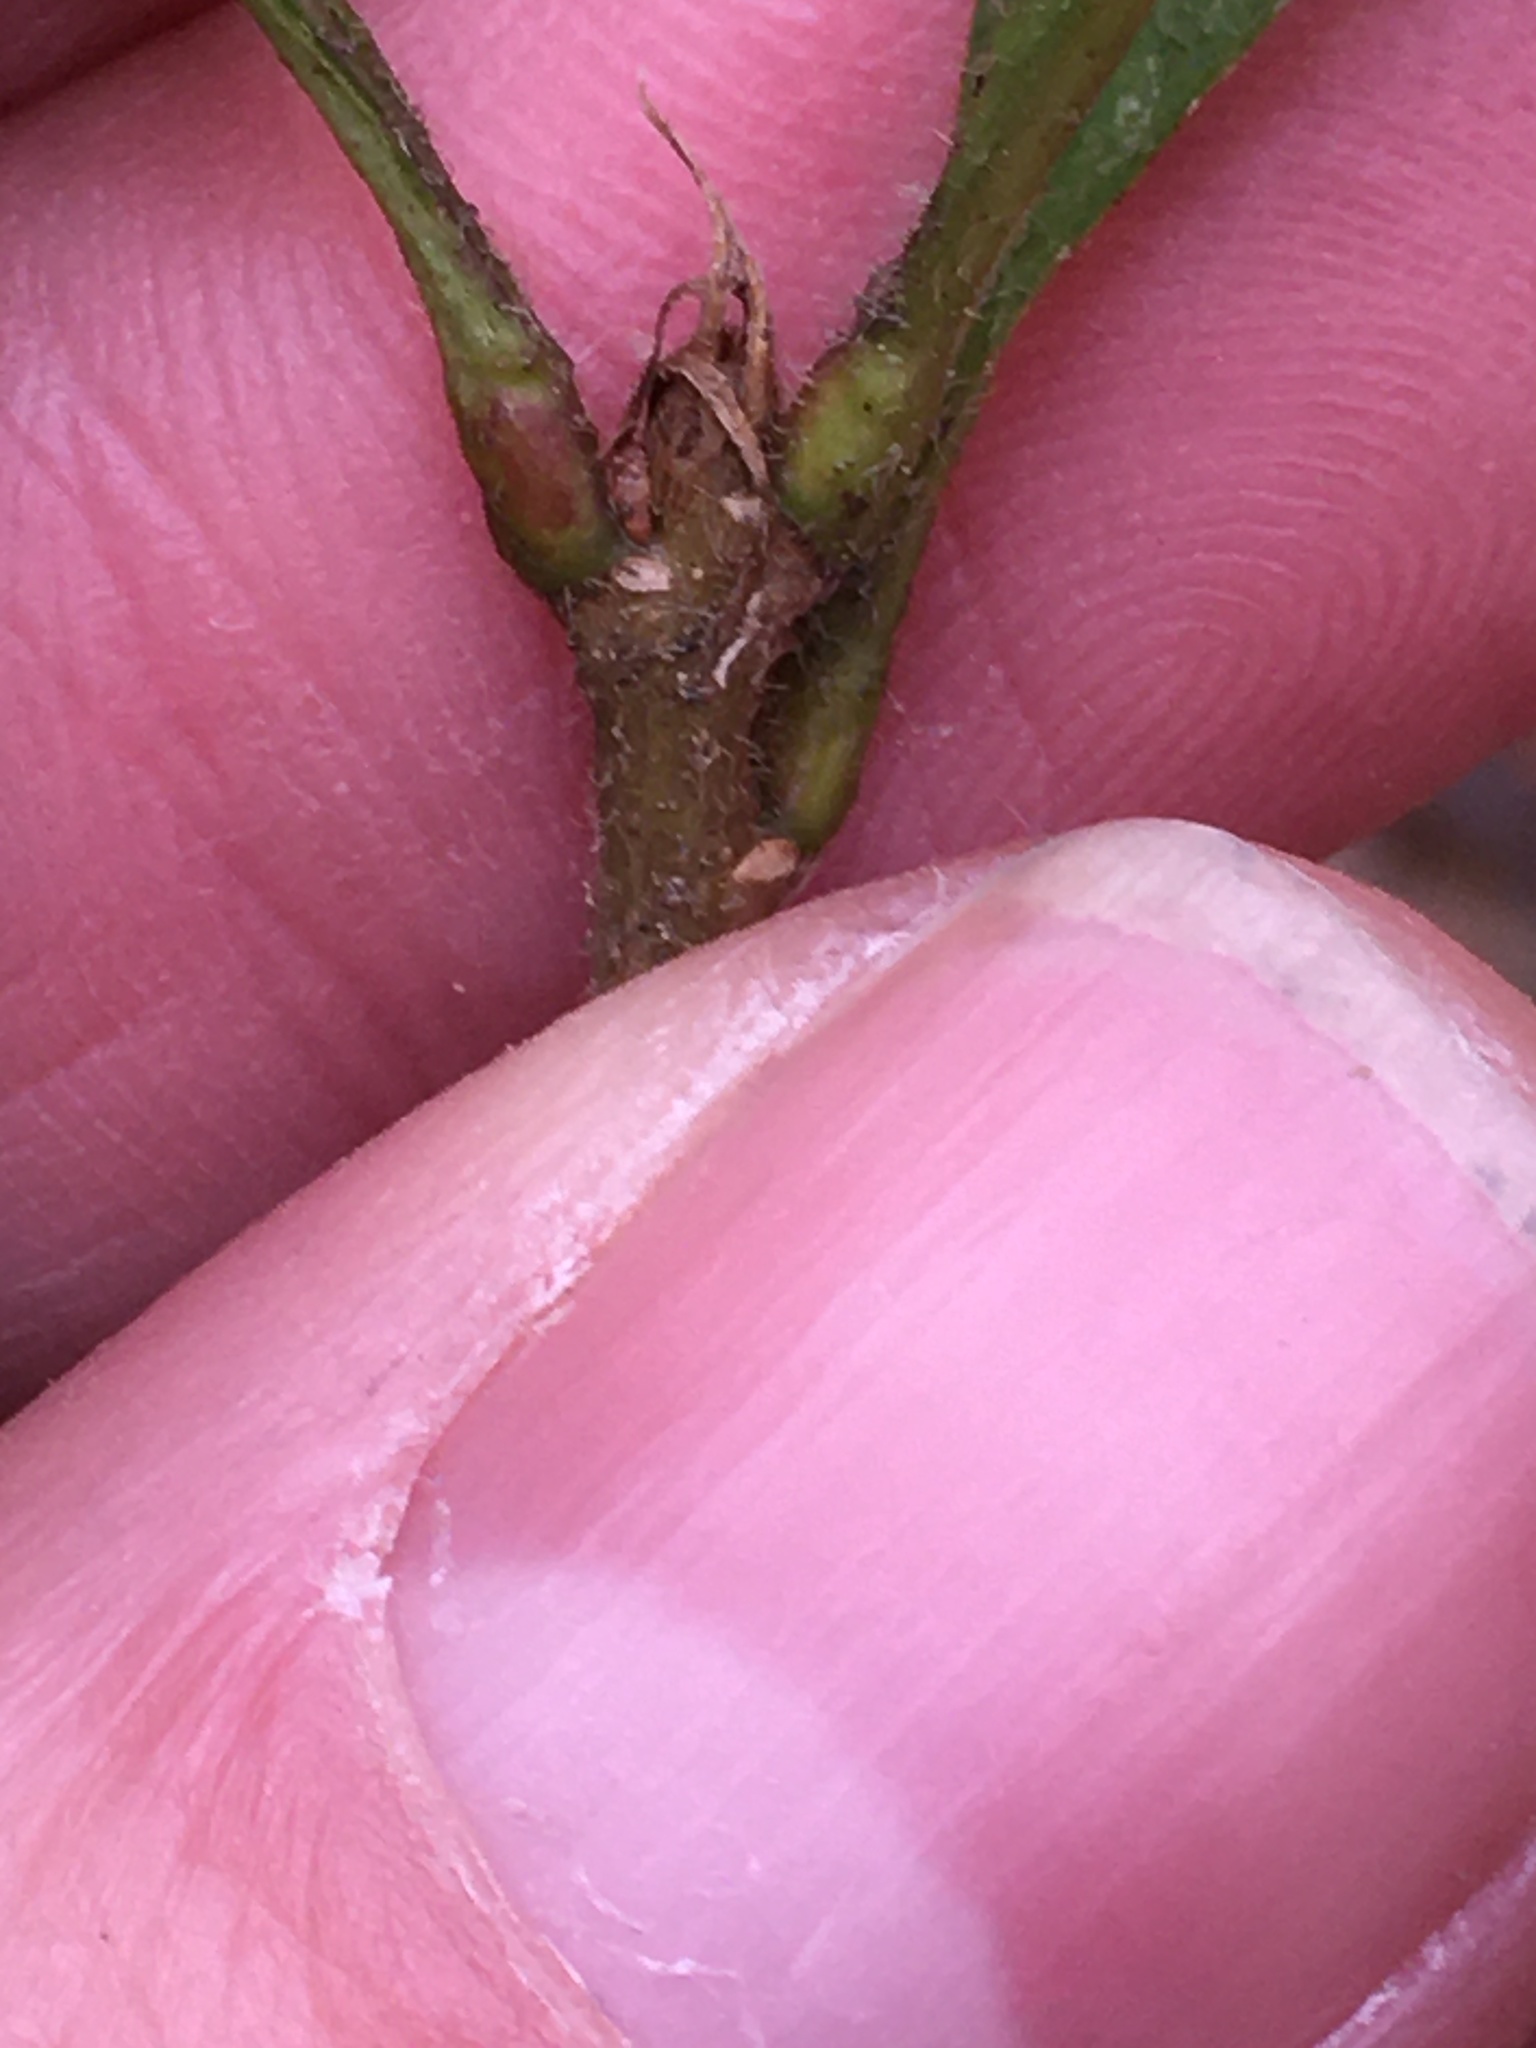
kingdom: Plantae
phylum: Tracheophyta
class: Magnoliopsida
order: Fagales
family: Fagaceae
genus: Quercus
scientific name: Quercus muehlenbergii
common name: Chinkapin oak
